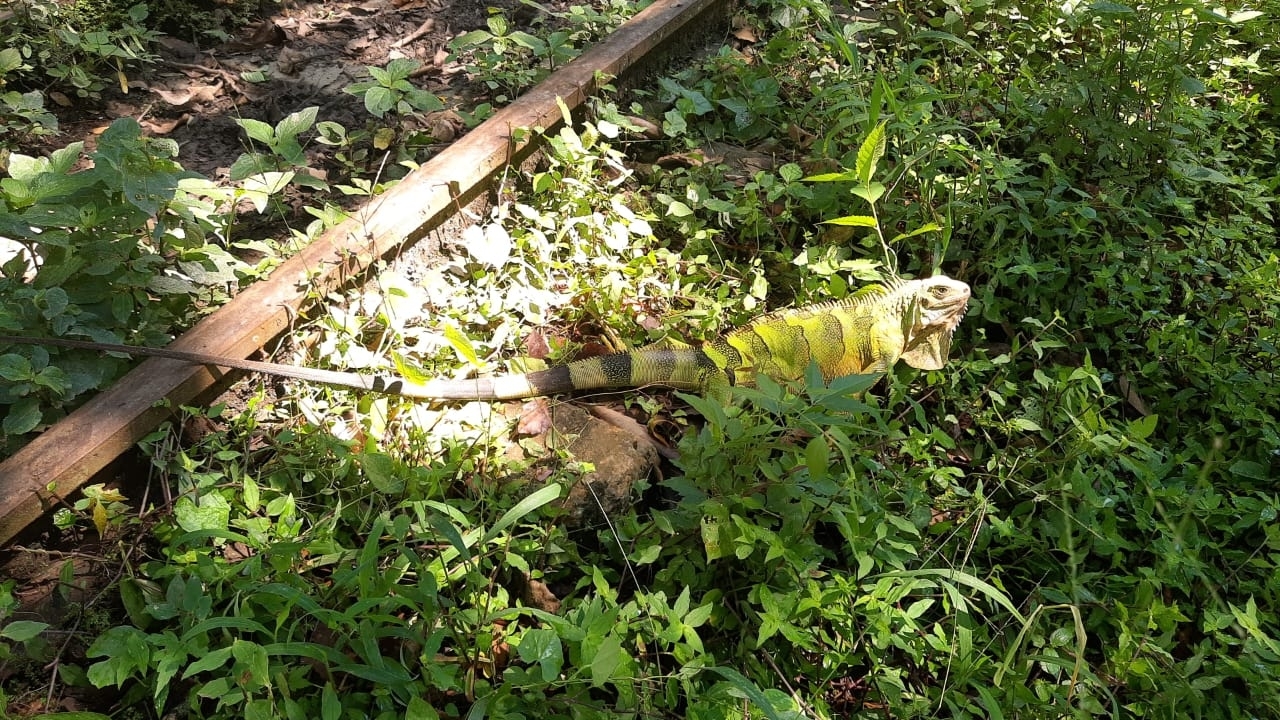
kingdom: Animalia
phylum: Chordata
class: Squamata
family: Iguanidae
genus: Iguana
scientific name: Iguana iguana
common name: Green iguana
